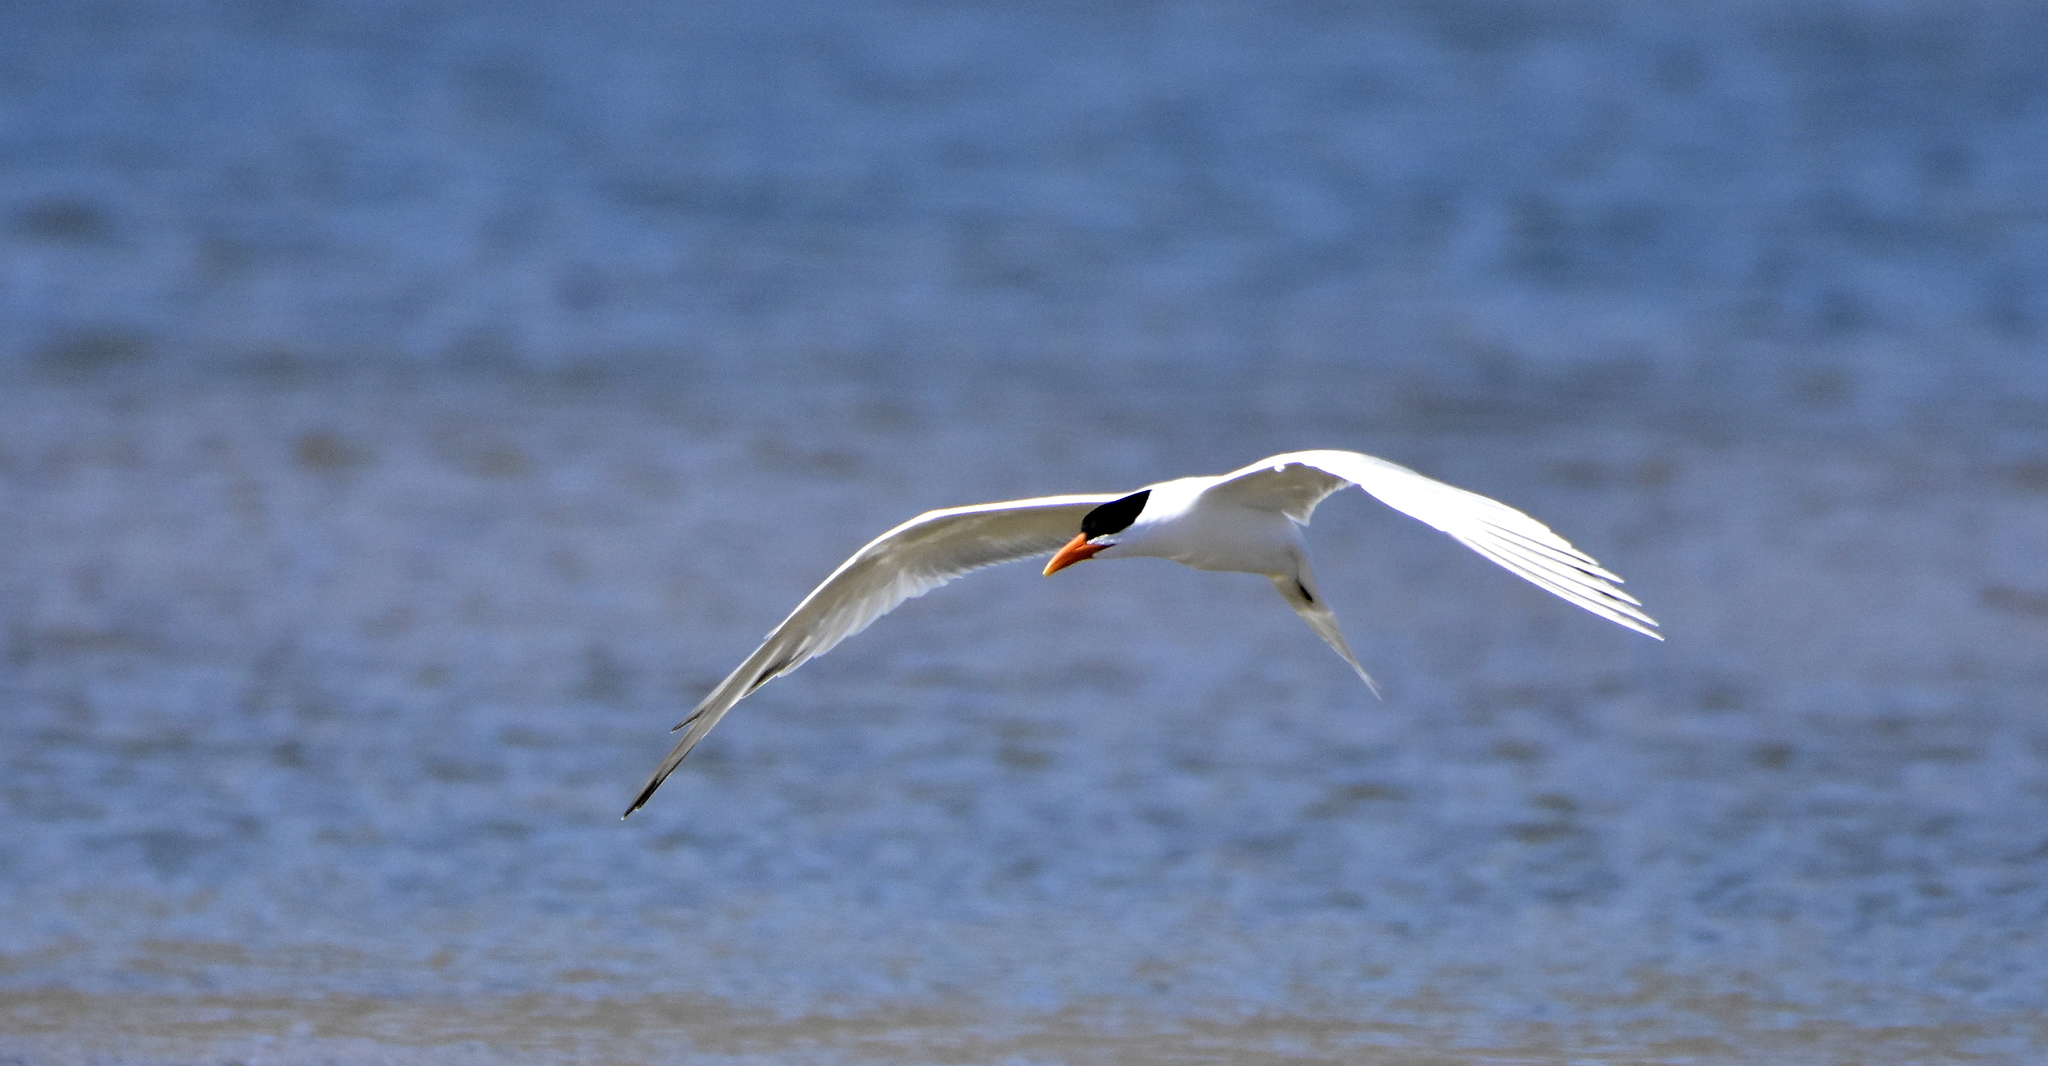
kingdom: Animalia
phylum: Chordata
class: Aves
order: Charadriiformes
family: Laridae
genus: Thalasseus
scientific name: Thalasseus maximus
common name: Royal tern
